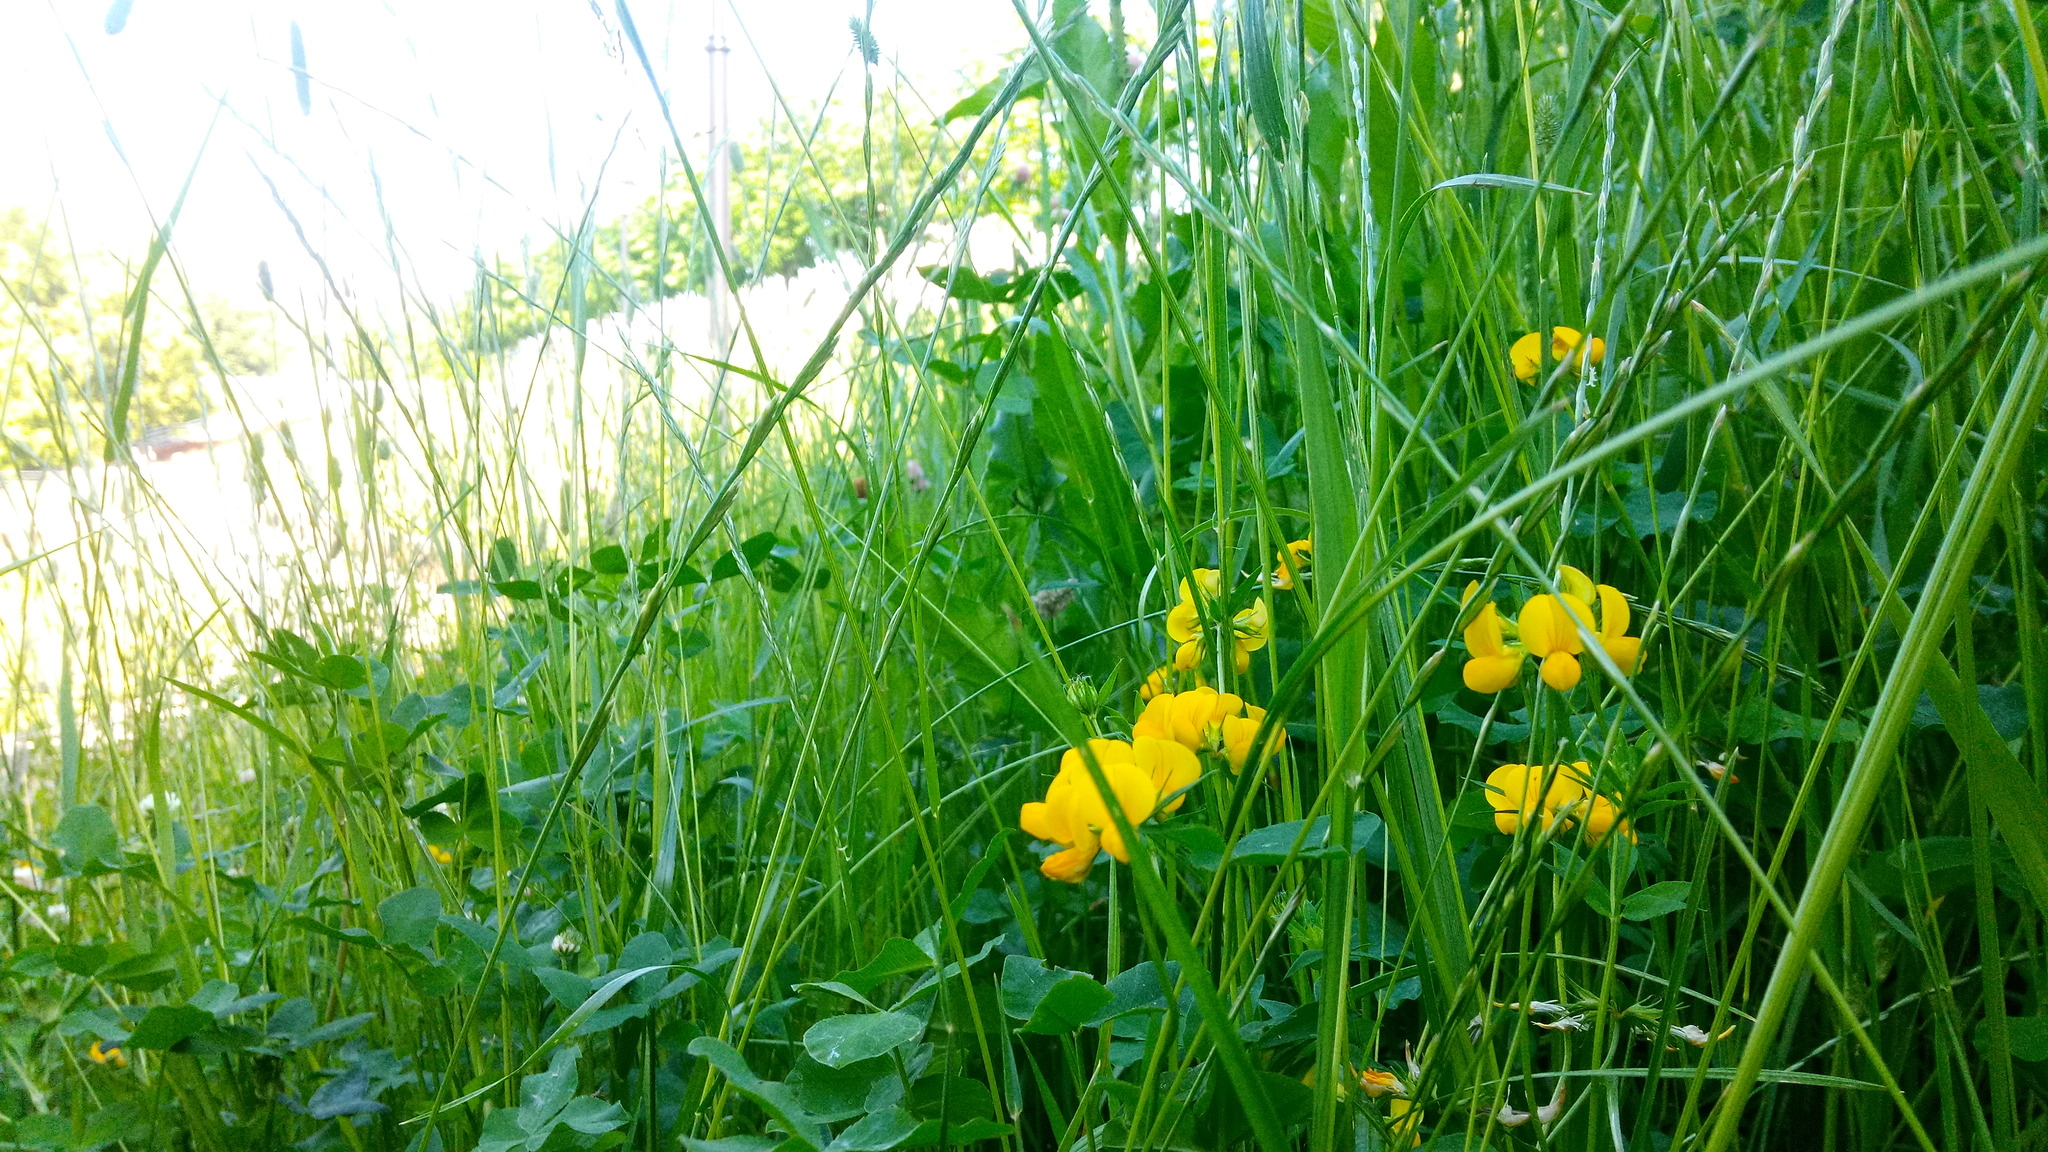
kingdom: Plantae
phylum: Tracheophyta
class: Magnoliopsida
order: Fabales
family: Fabaceae
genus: Lotus
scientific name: Lotus corniculatus
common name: Common bird's-foot-trefoil
